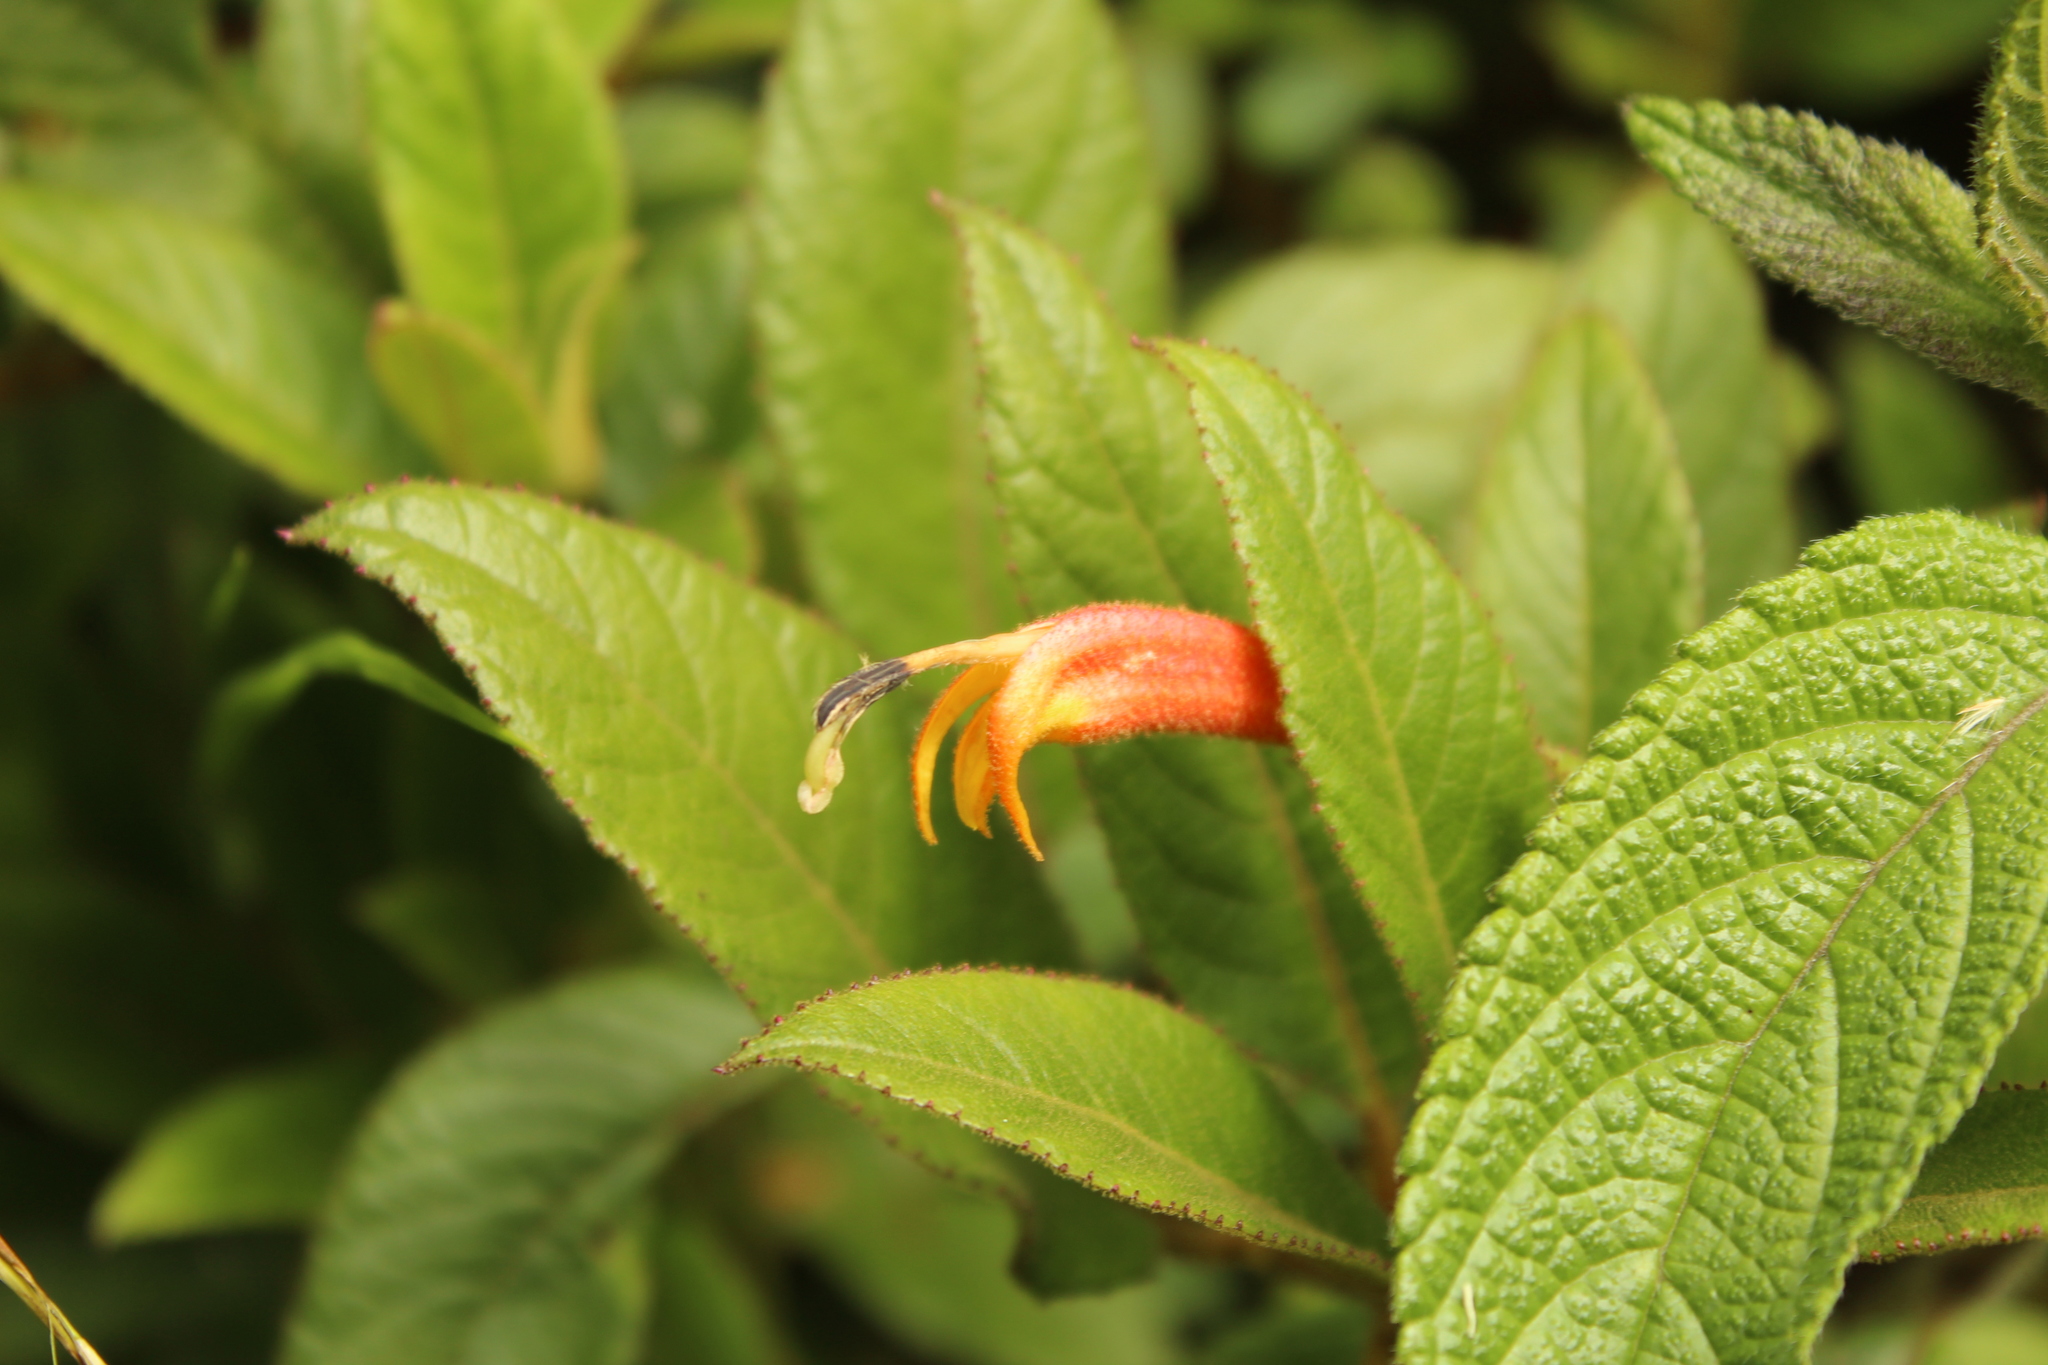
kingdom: Plantae
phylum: Tracheophyta
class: Magnoliopsida
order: Asterales
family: Campanulaceae
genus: Centropogon
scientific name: Centropogon ferrugineus
